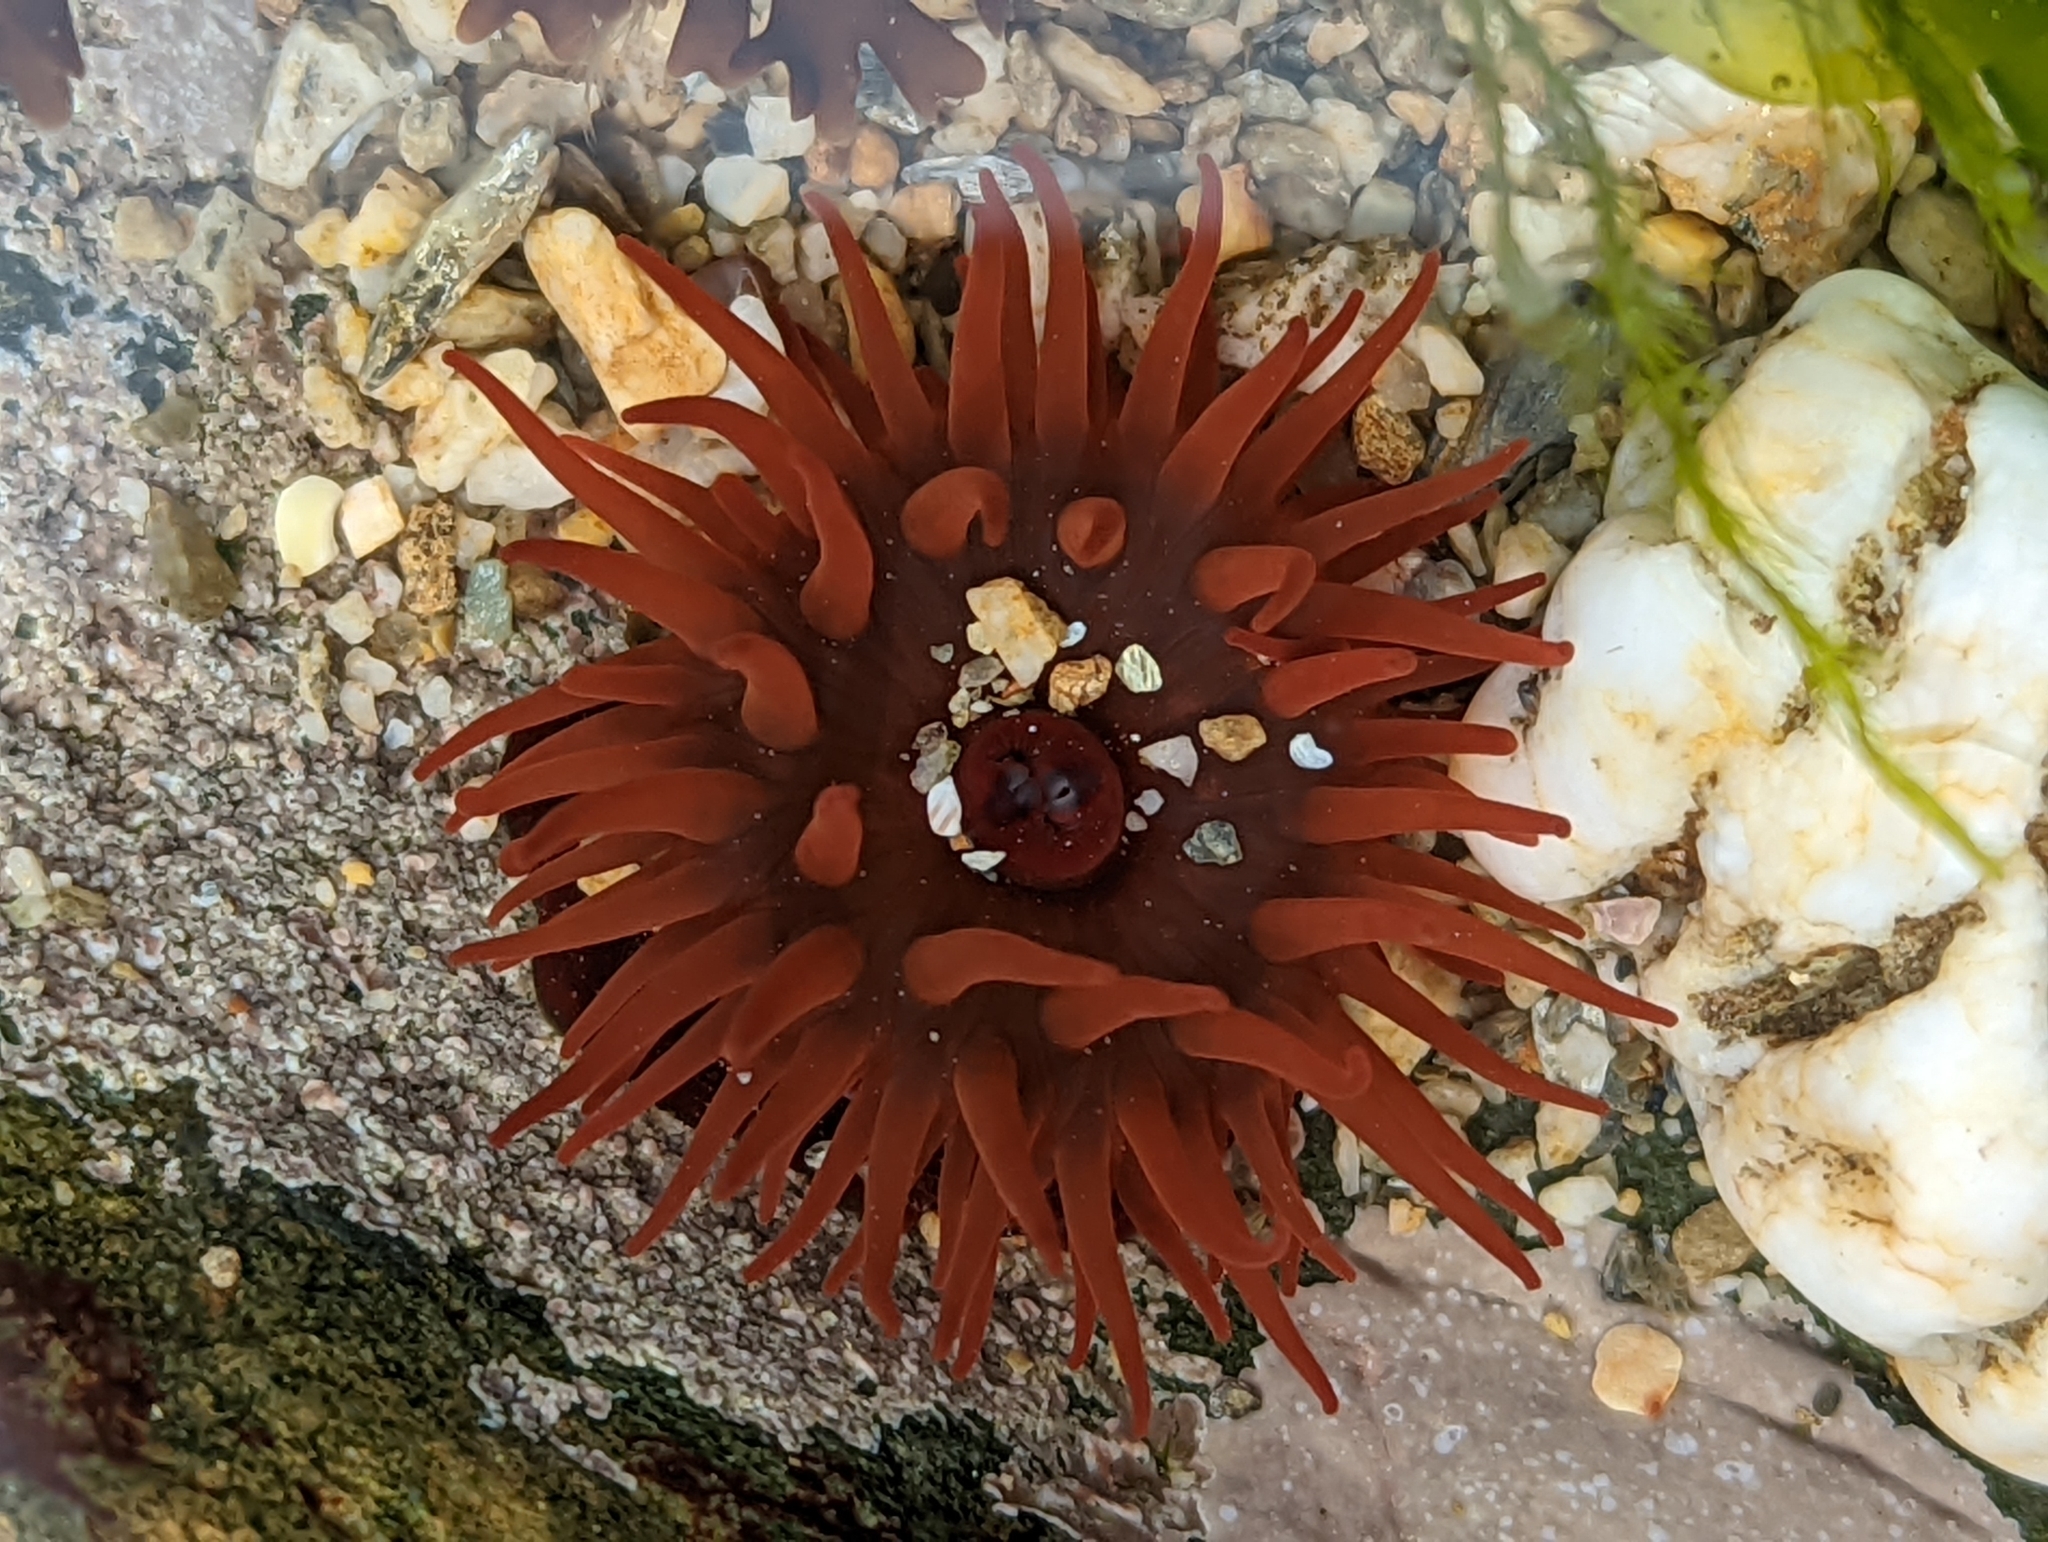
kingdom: Animalia
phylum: Cnidaria
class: Anthozoa
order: Actiniaria
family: Actiniidae
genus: Actinia
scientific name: Actinia equina
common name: Beadlet anemone
